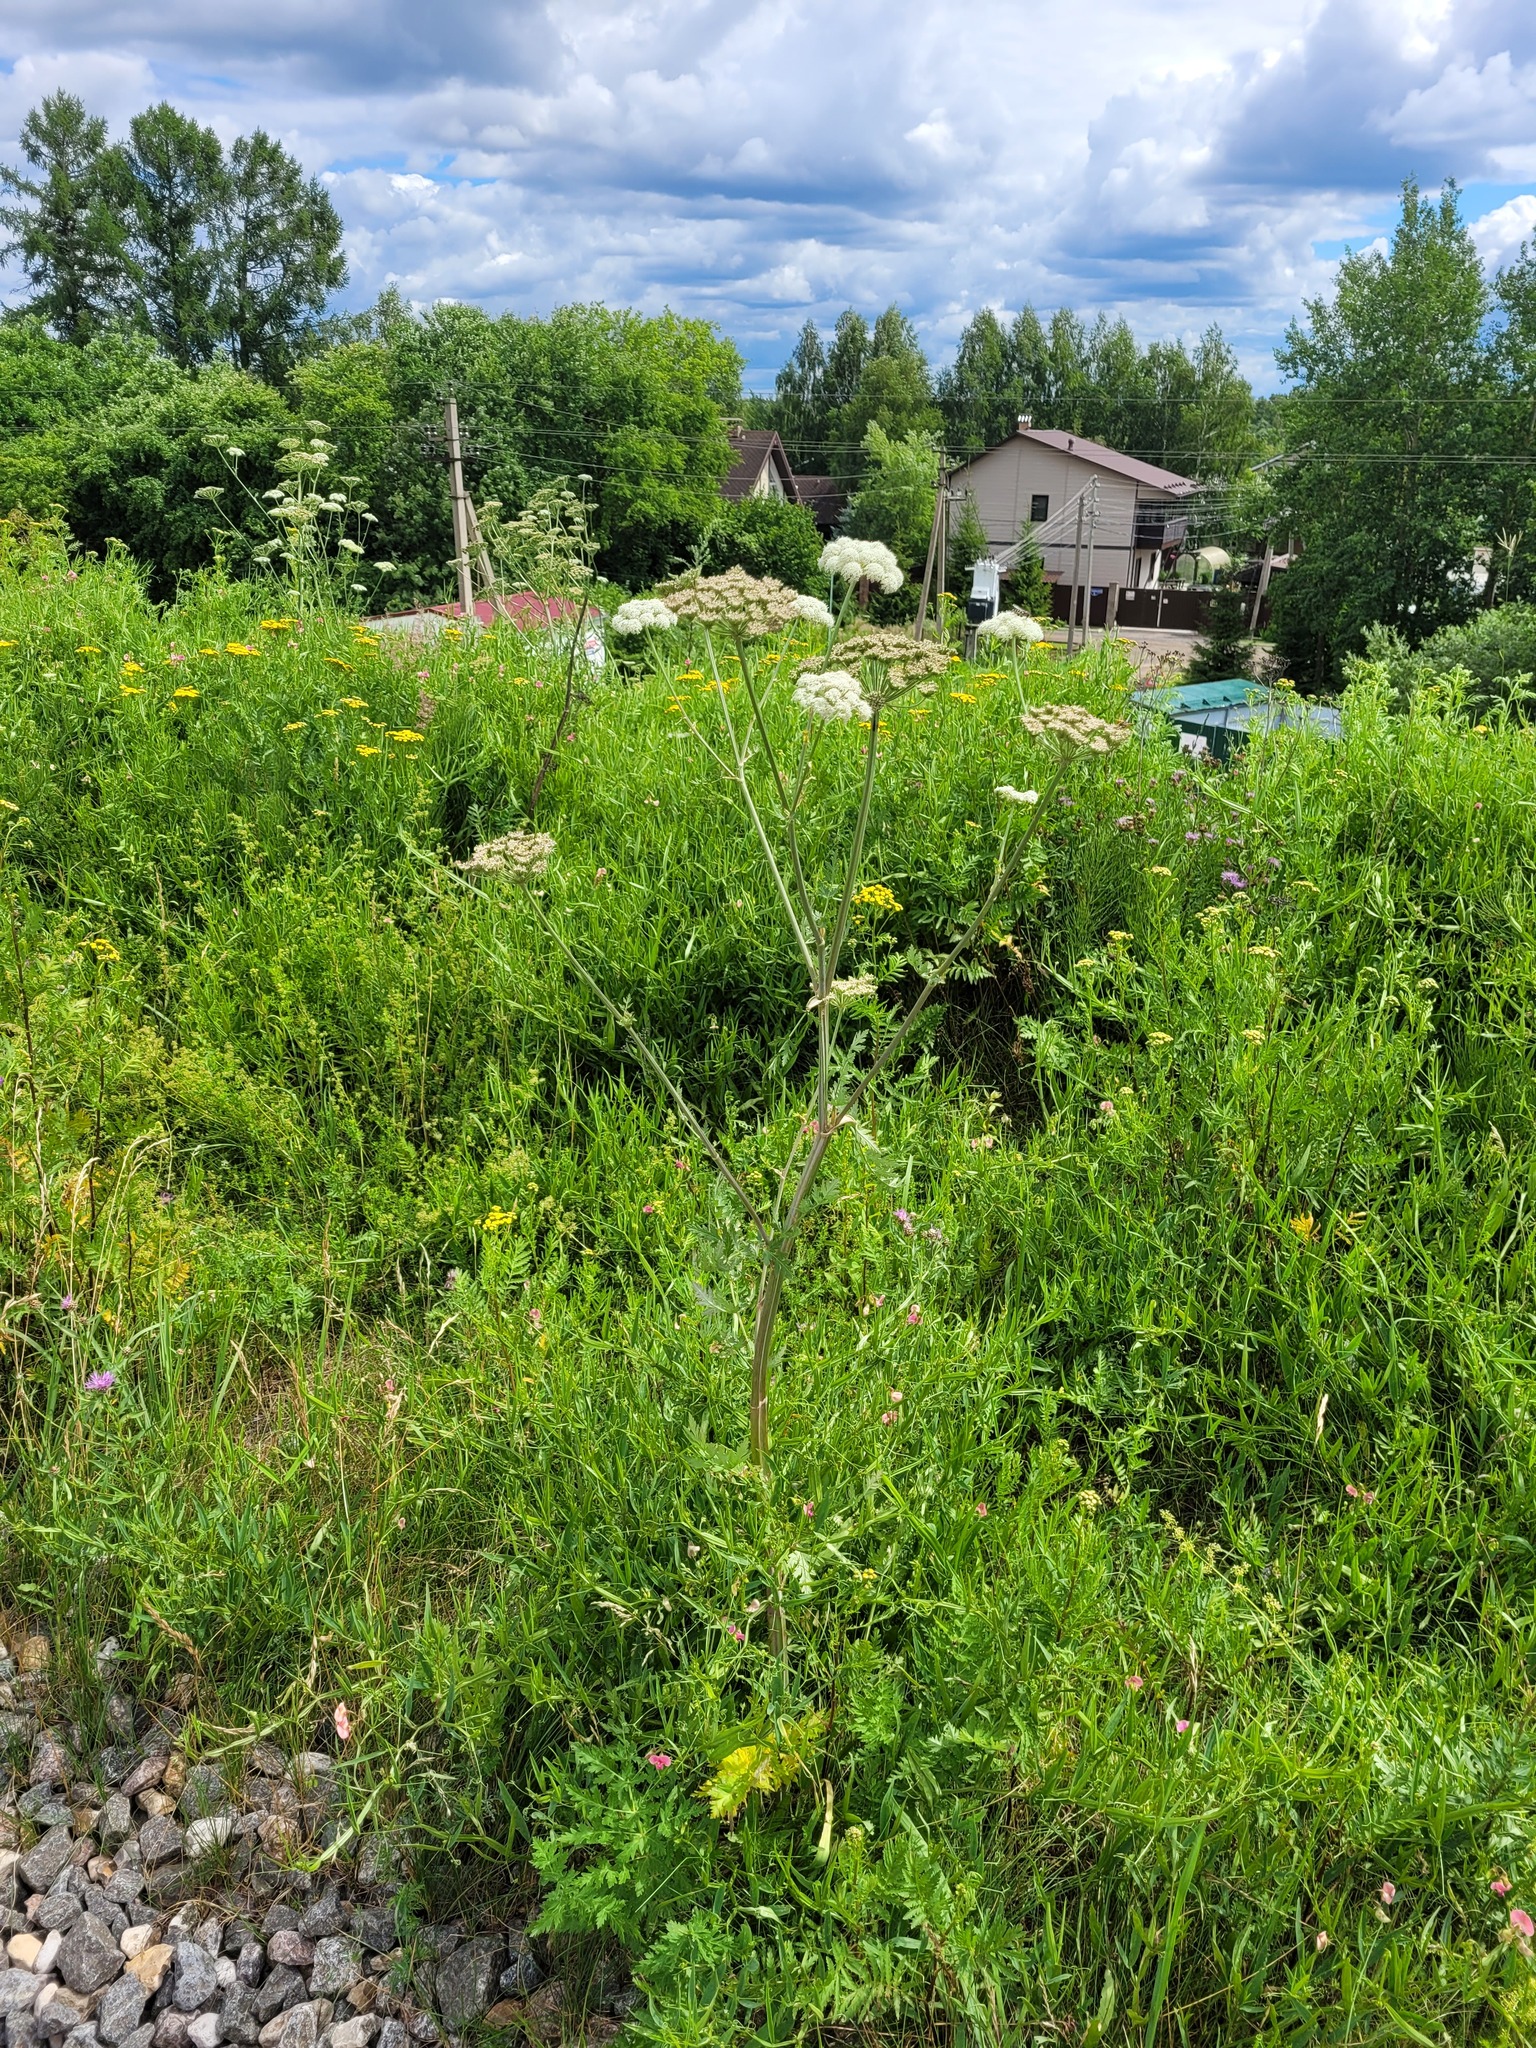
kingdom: Plantae
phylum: Tracheophyta
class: Magnoliopsida
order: Apiales
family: Apiaceae
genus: Seseli
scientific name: Seseli libanotis
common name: Mooncarrot
